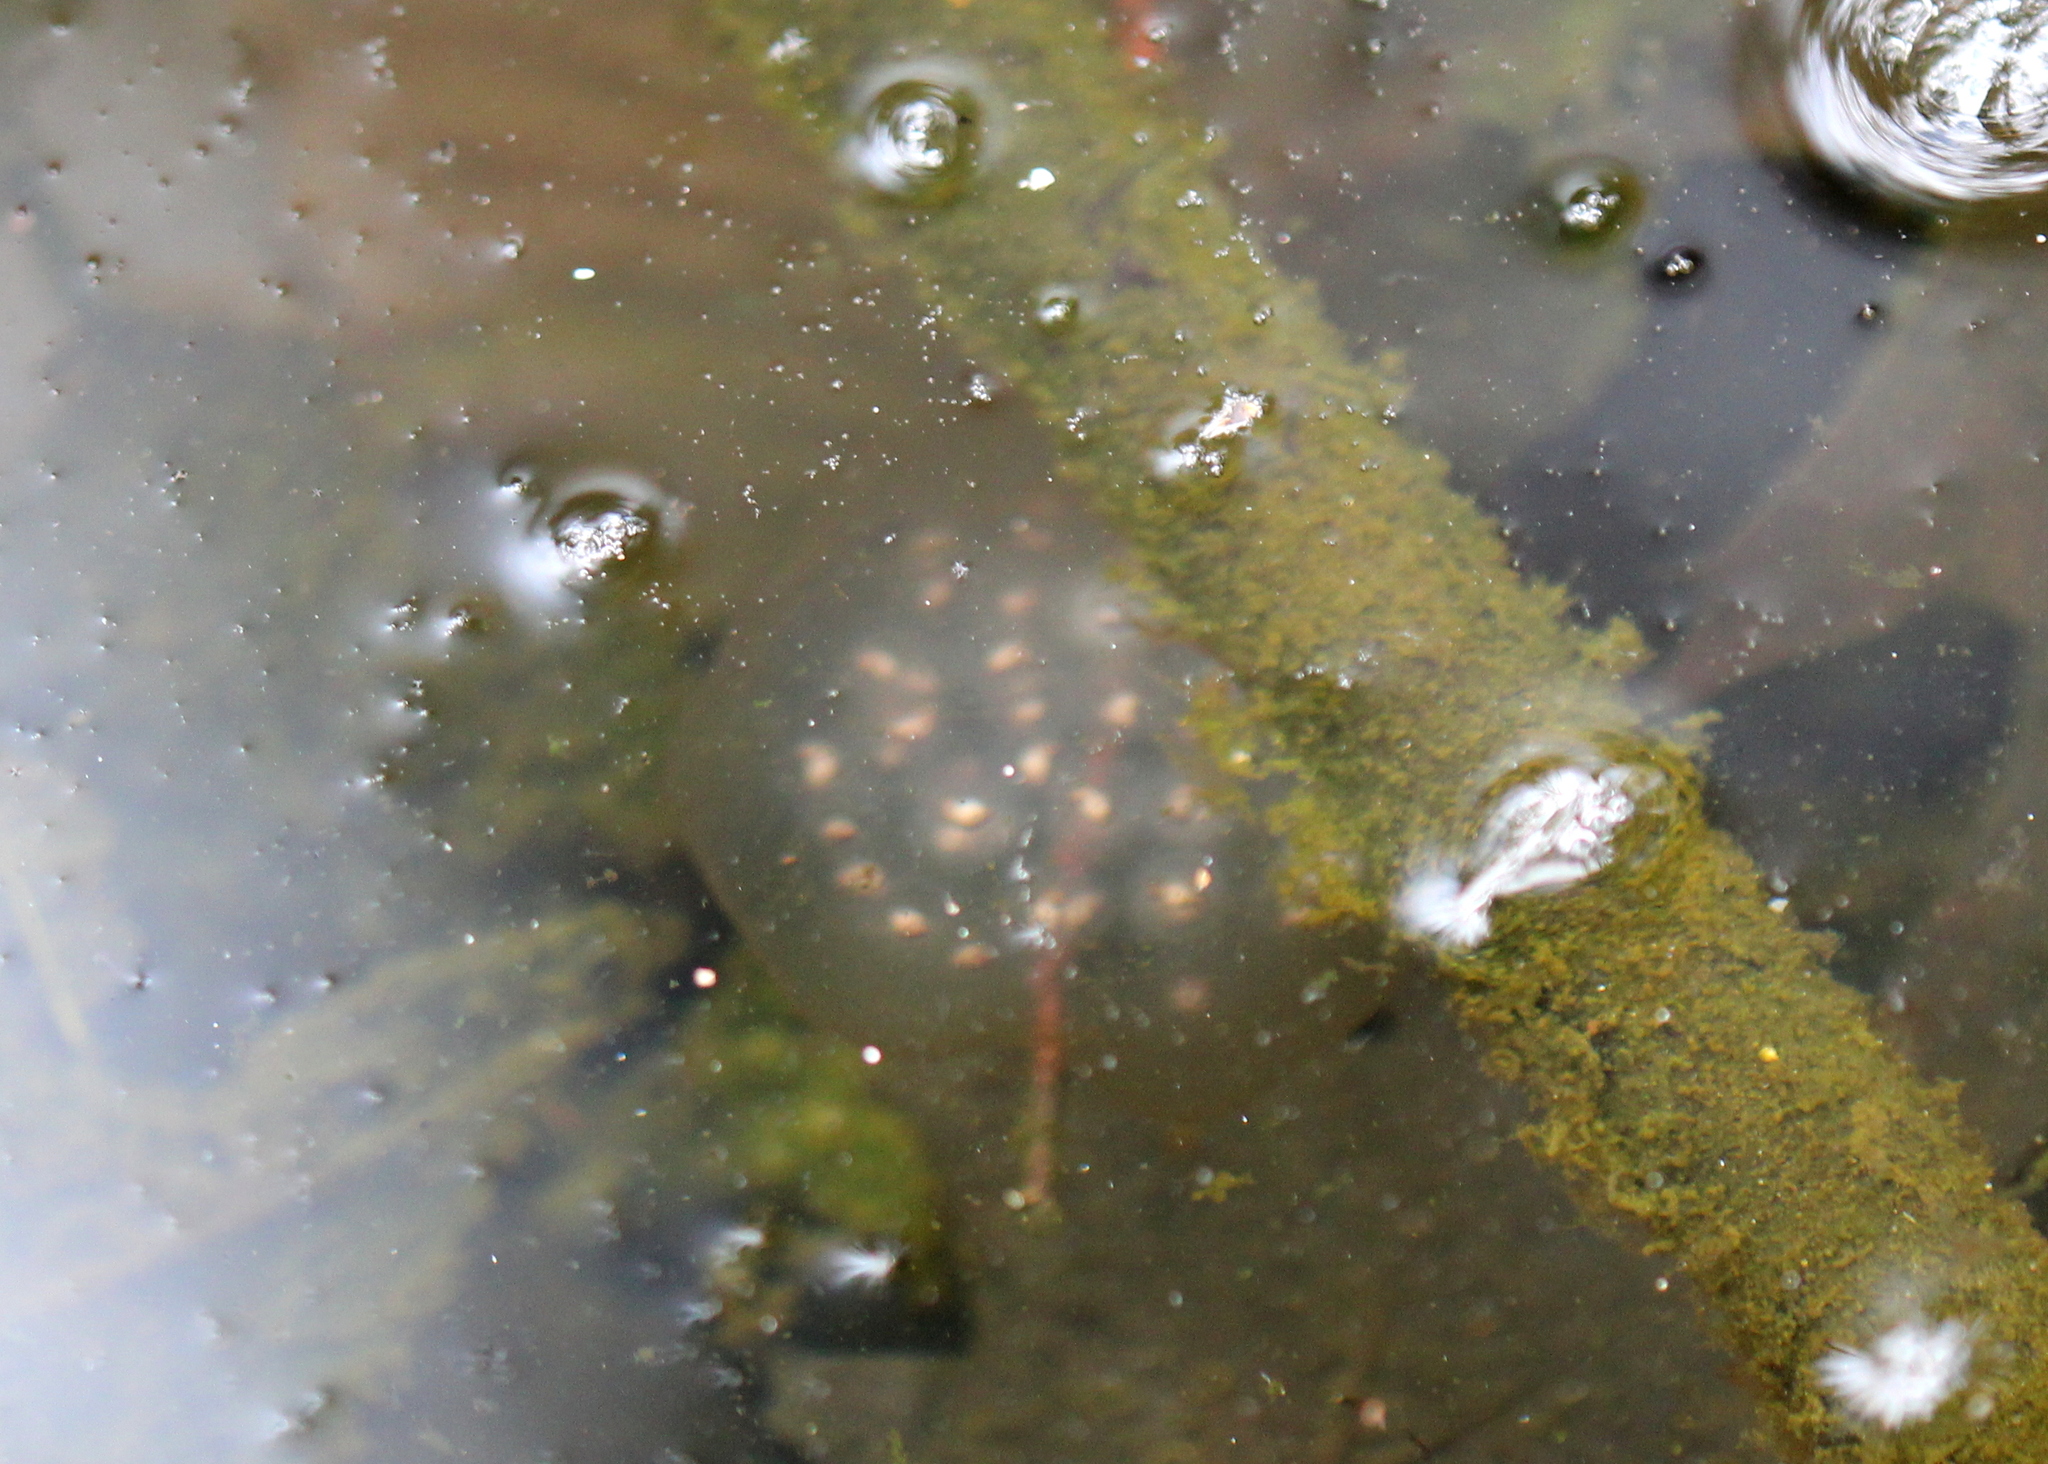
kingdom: Animalia
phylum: Chordata
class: Amphibia
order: Caudata
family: Ambystomatidae
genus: Ambystoma
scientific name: Ambystoma maculatum
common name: Spotted salamander
